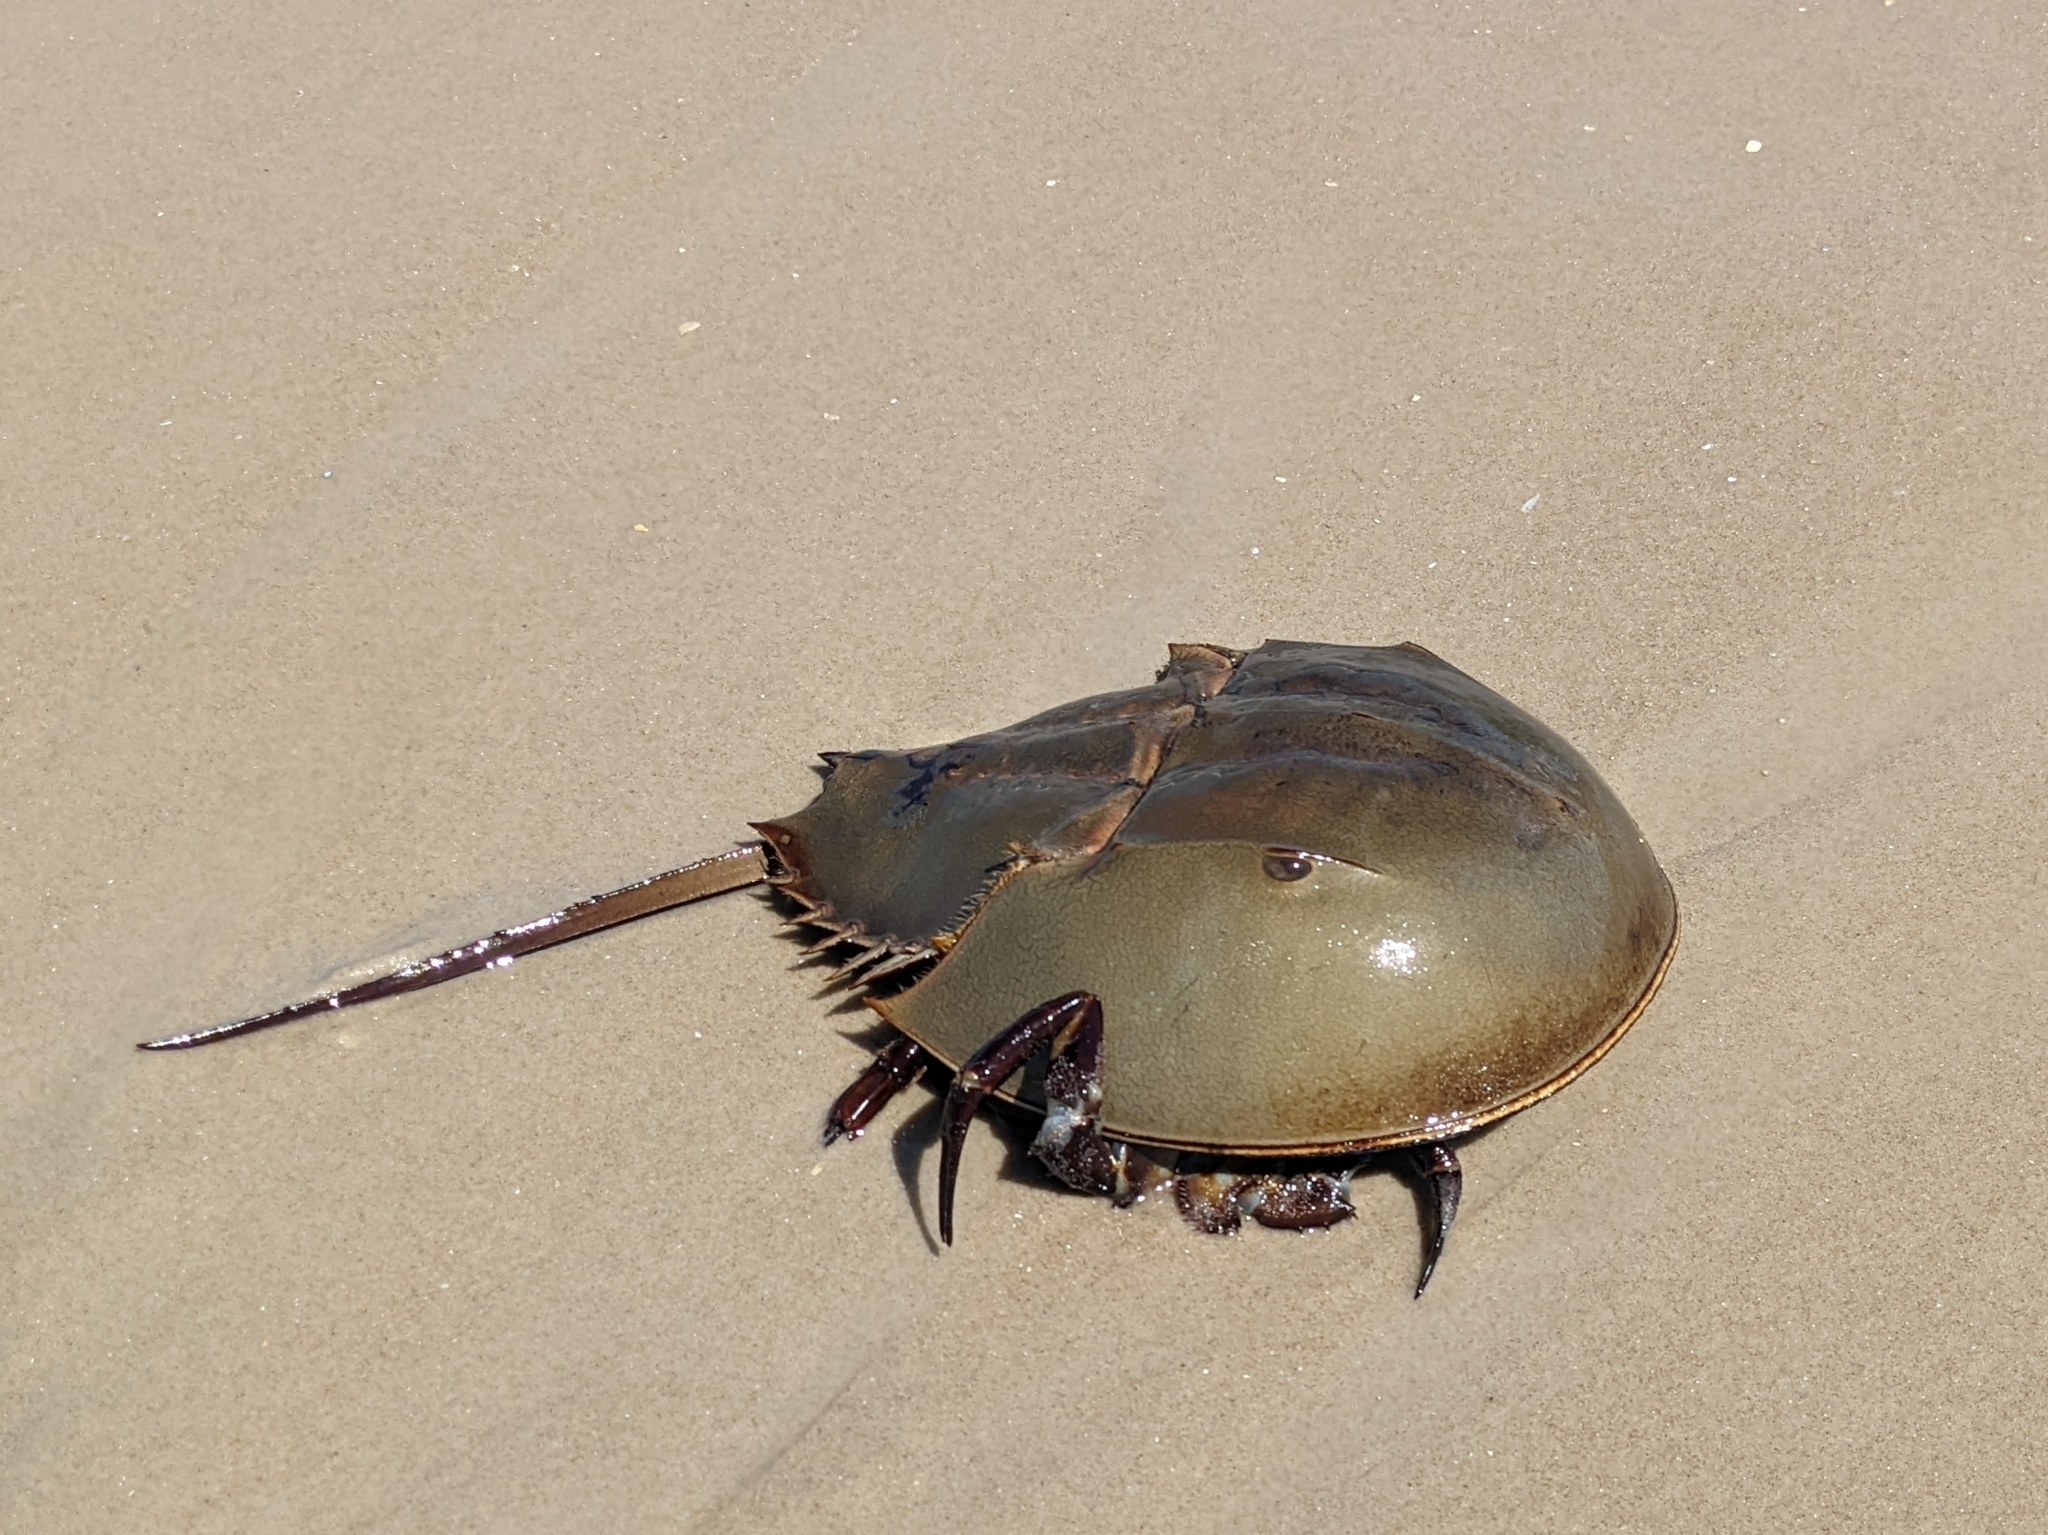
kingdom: Animalia
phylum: Arthropoda
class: Merostomata
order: Xiphosurida
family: Limulidae
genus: Limulus
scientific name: Limulus polyphemus
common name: Horseshoe crab
